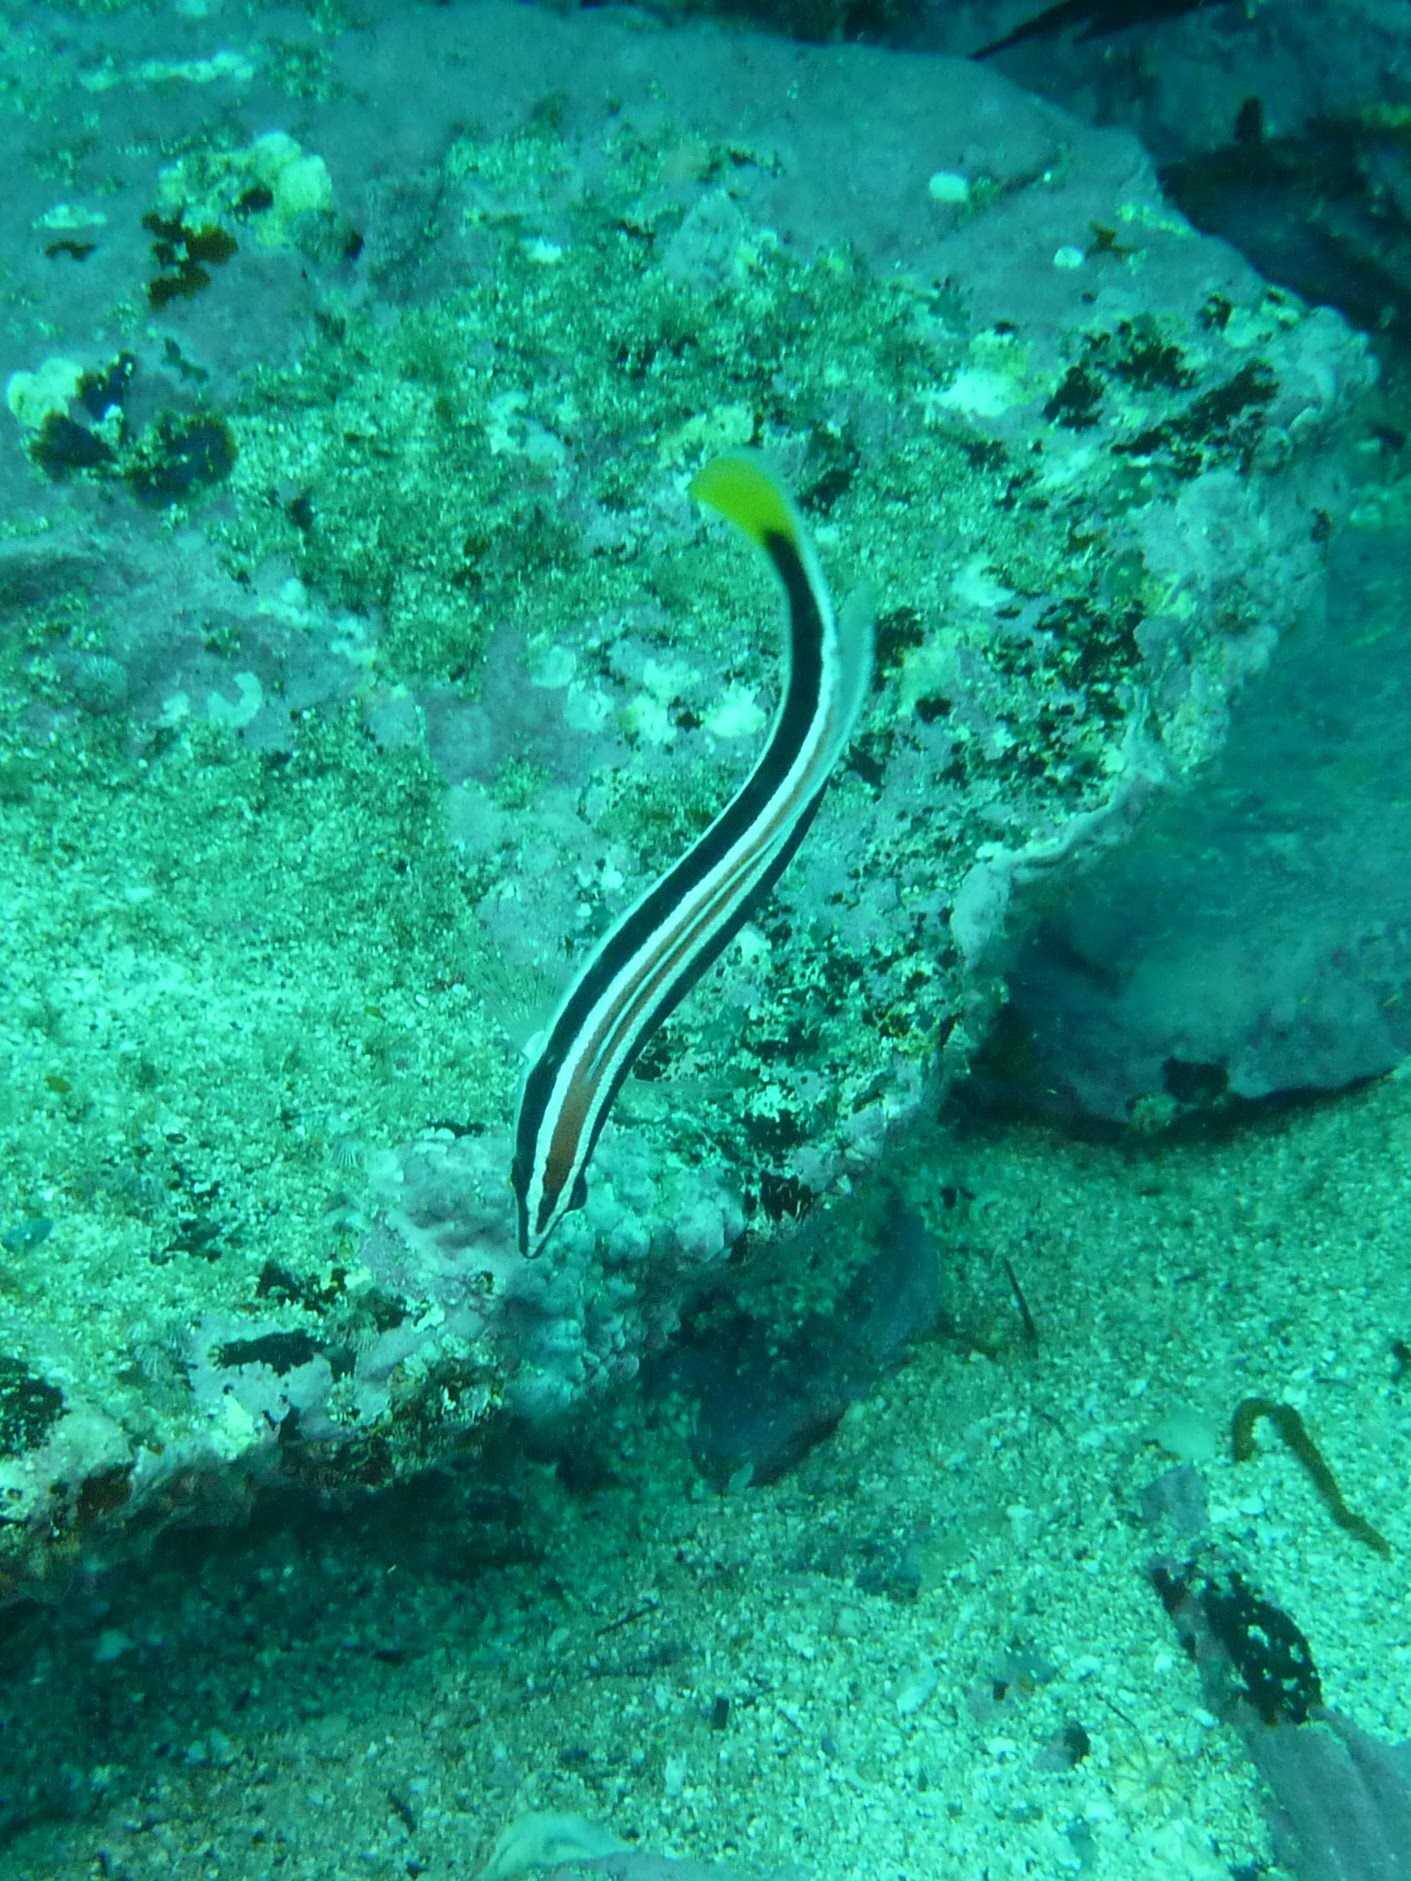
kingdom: Animalia
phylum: Chordata
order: Perciformes
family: Labridae
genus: Coris
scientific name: Coris picta
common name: Combfish
